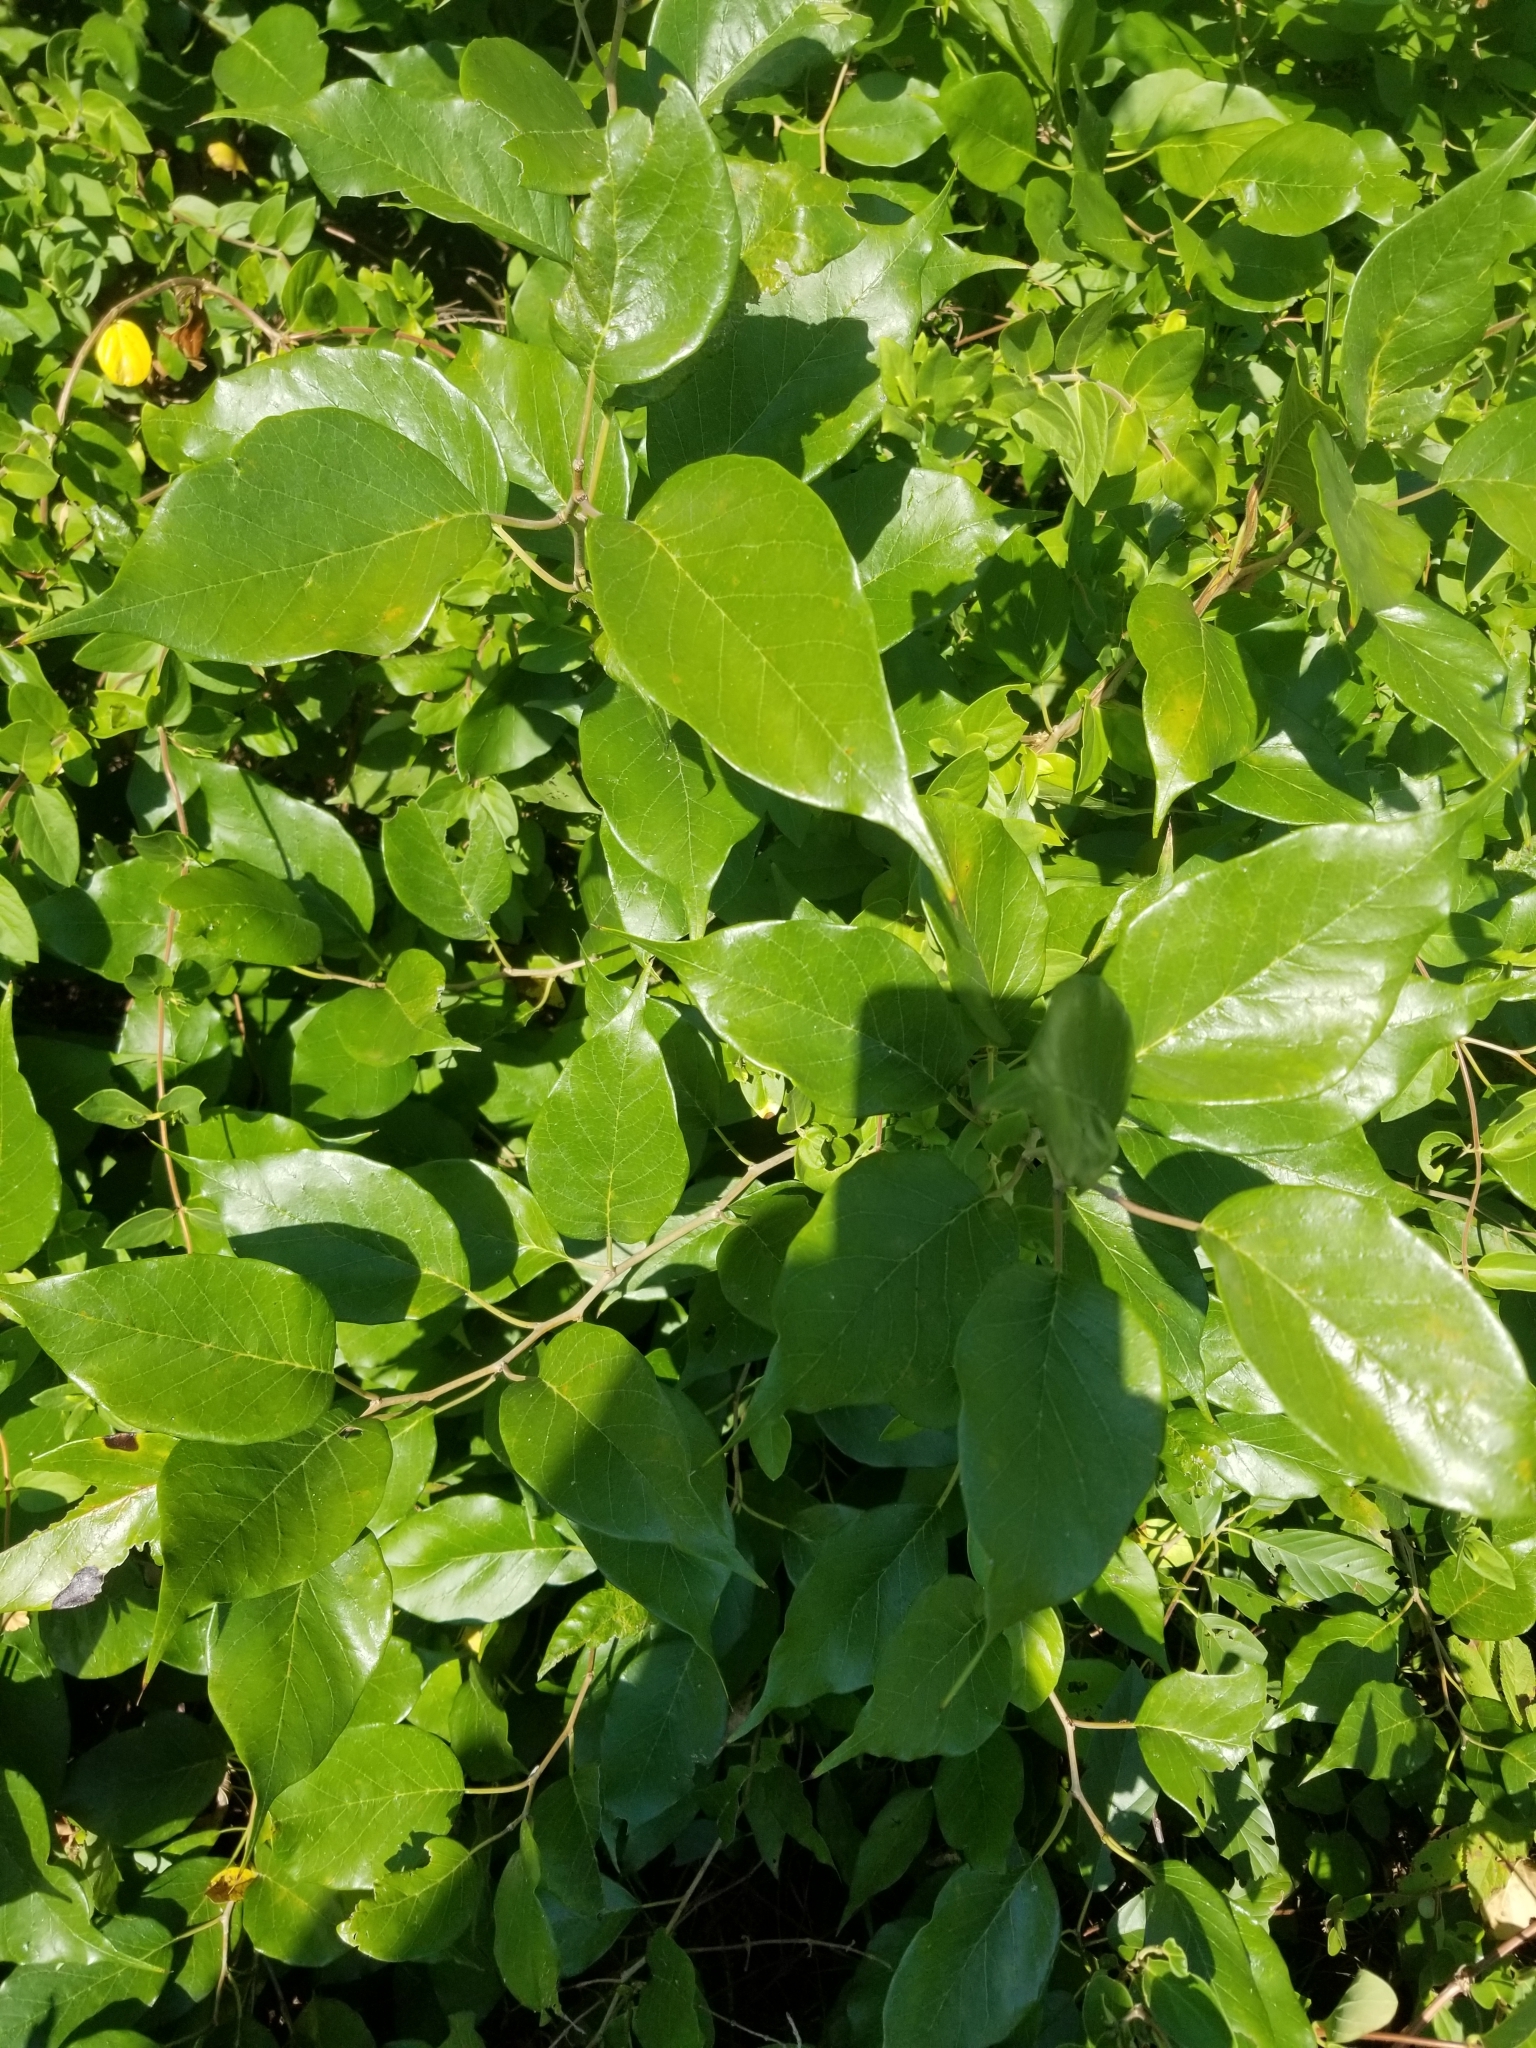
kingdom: Plantae
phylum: Tracheophyta
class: Magnoliopsida
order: Rosales
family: Moraceae
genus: Maclura
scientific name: Maclura pomifera
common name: Osage-orange
